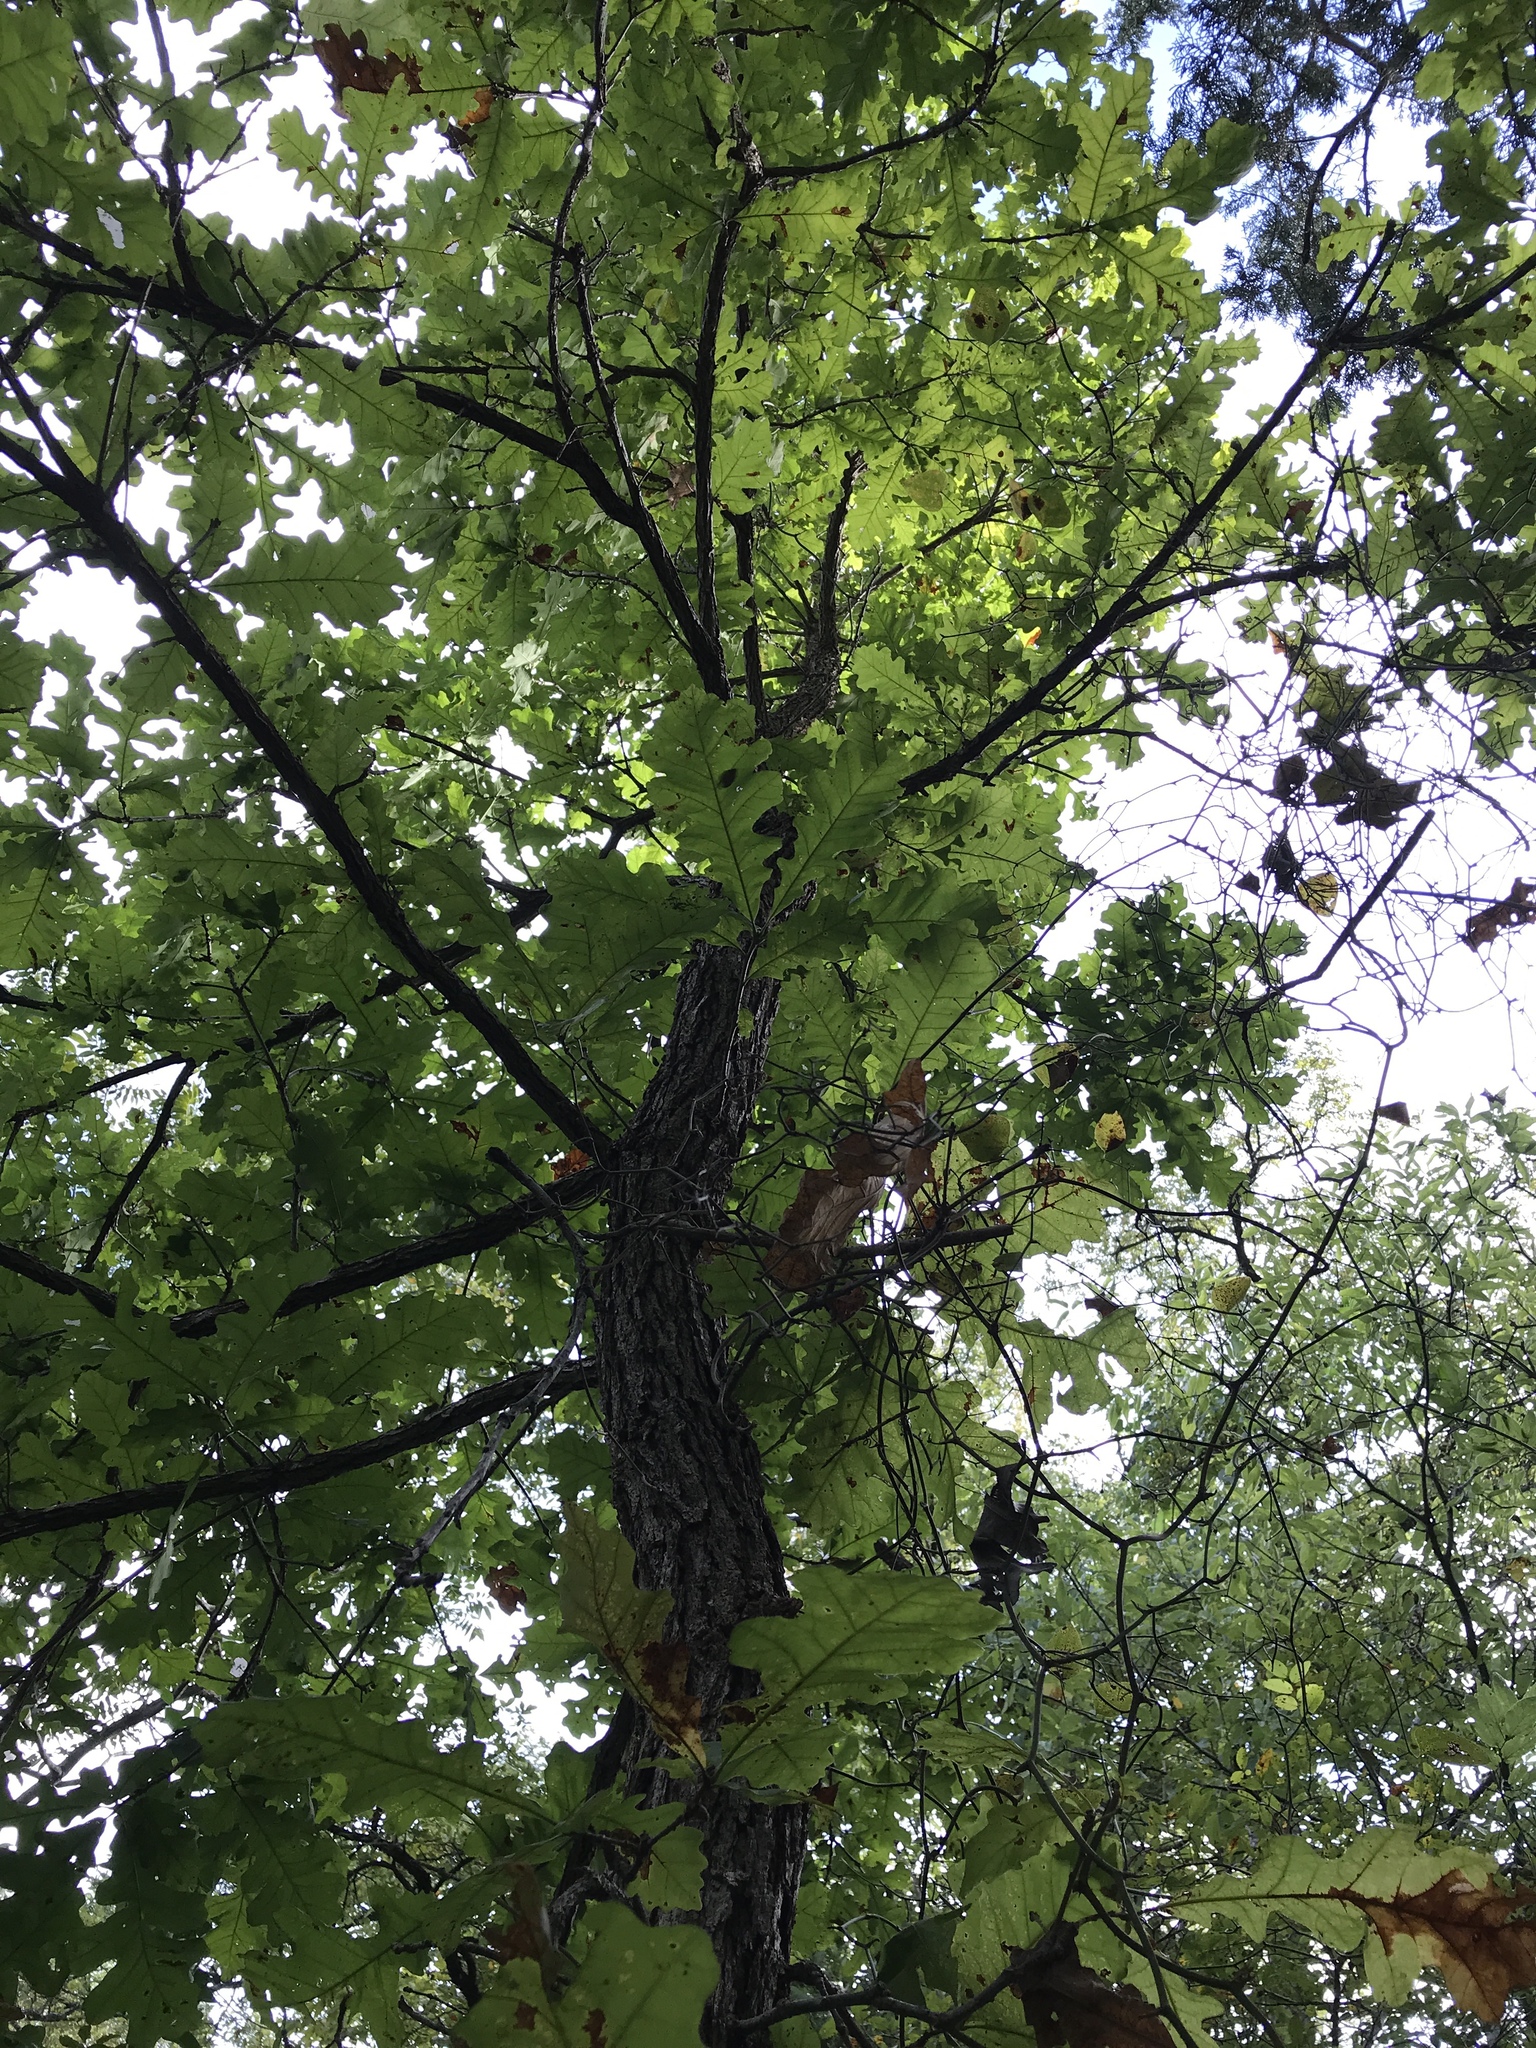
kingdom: Plantae
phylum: Tracheophyta
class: Magnoliopsida
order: Fagales
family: Fagaceae
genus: Quercus
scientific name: Quercus macrocarpa
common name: Bur oak
